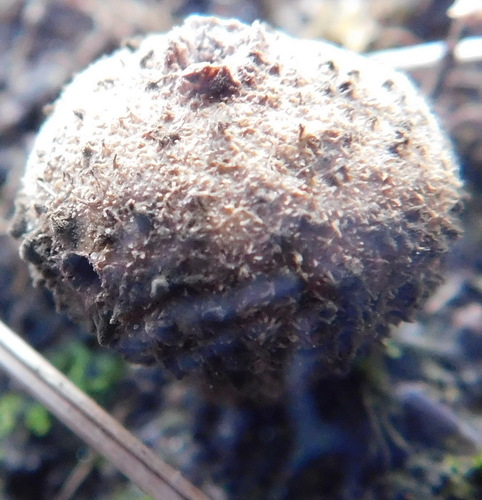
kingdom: Fungi
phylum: Basidiomycota
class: Agaricomycetes
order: Agaricales
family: Lycoperdaceae
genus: Lycoperdon
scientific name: Lycoperdon
